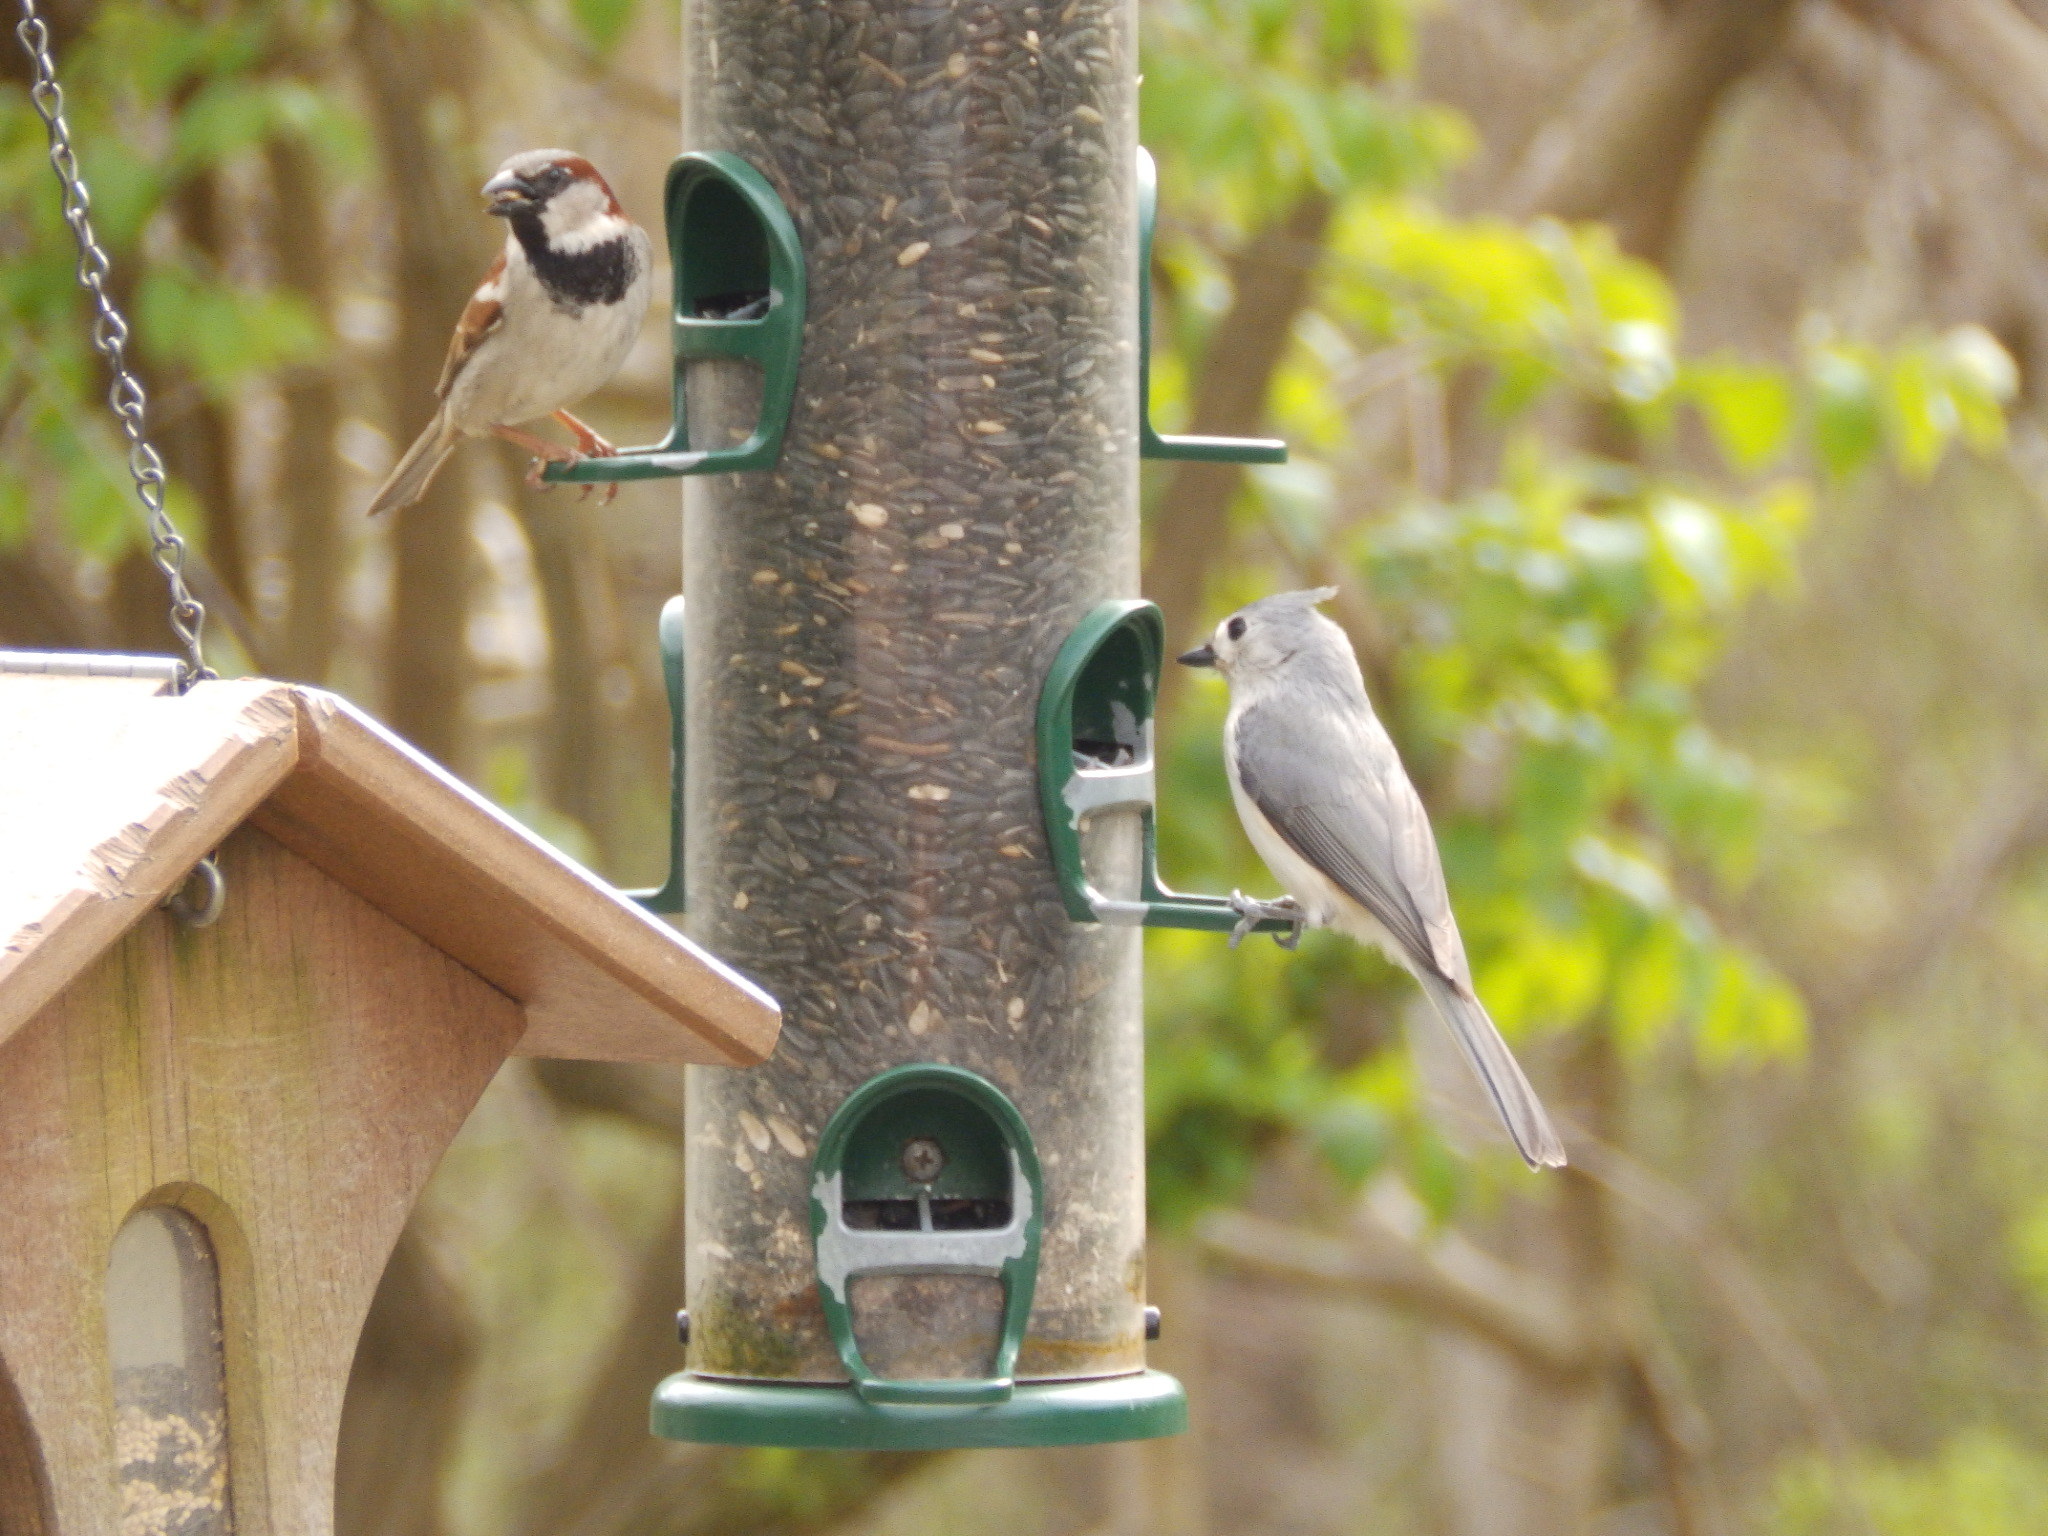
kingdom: Animalia
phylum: Chordata
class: Aves
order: Passeriformes
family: Paridae
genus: Baeolophus
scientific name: Baeolophus bicolor
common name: Tufted titmouse
